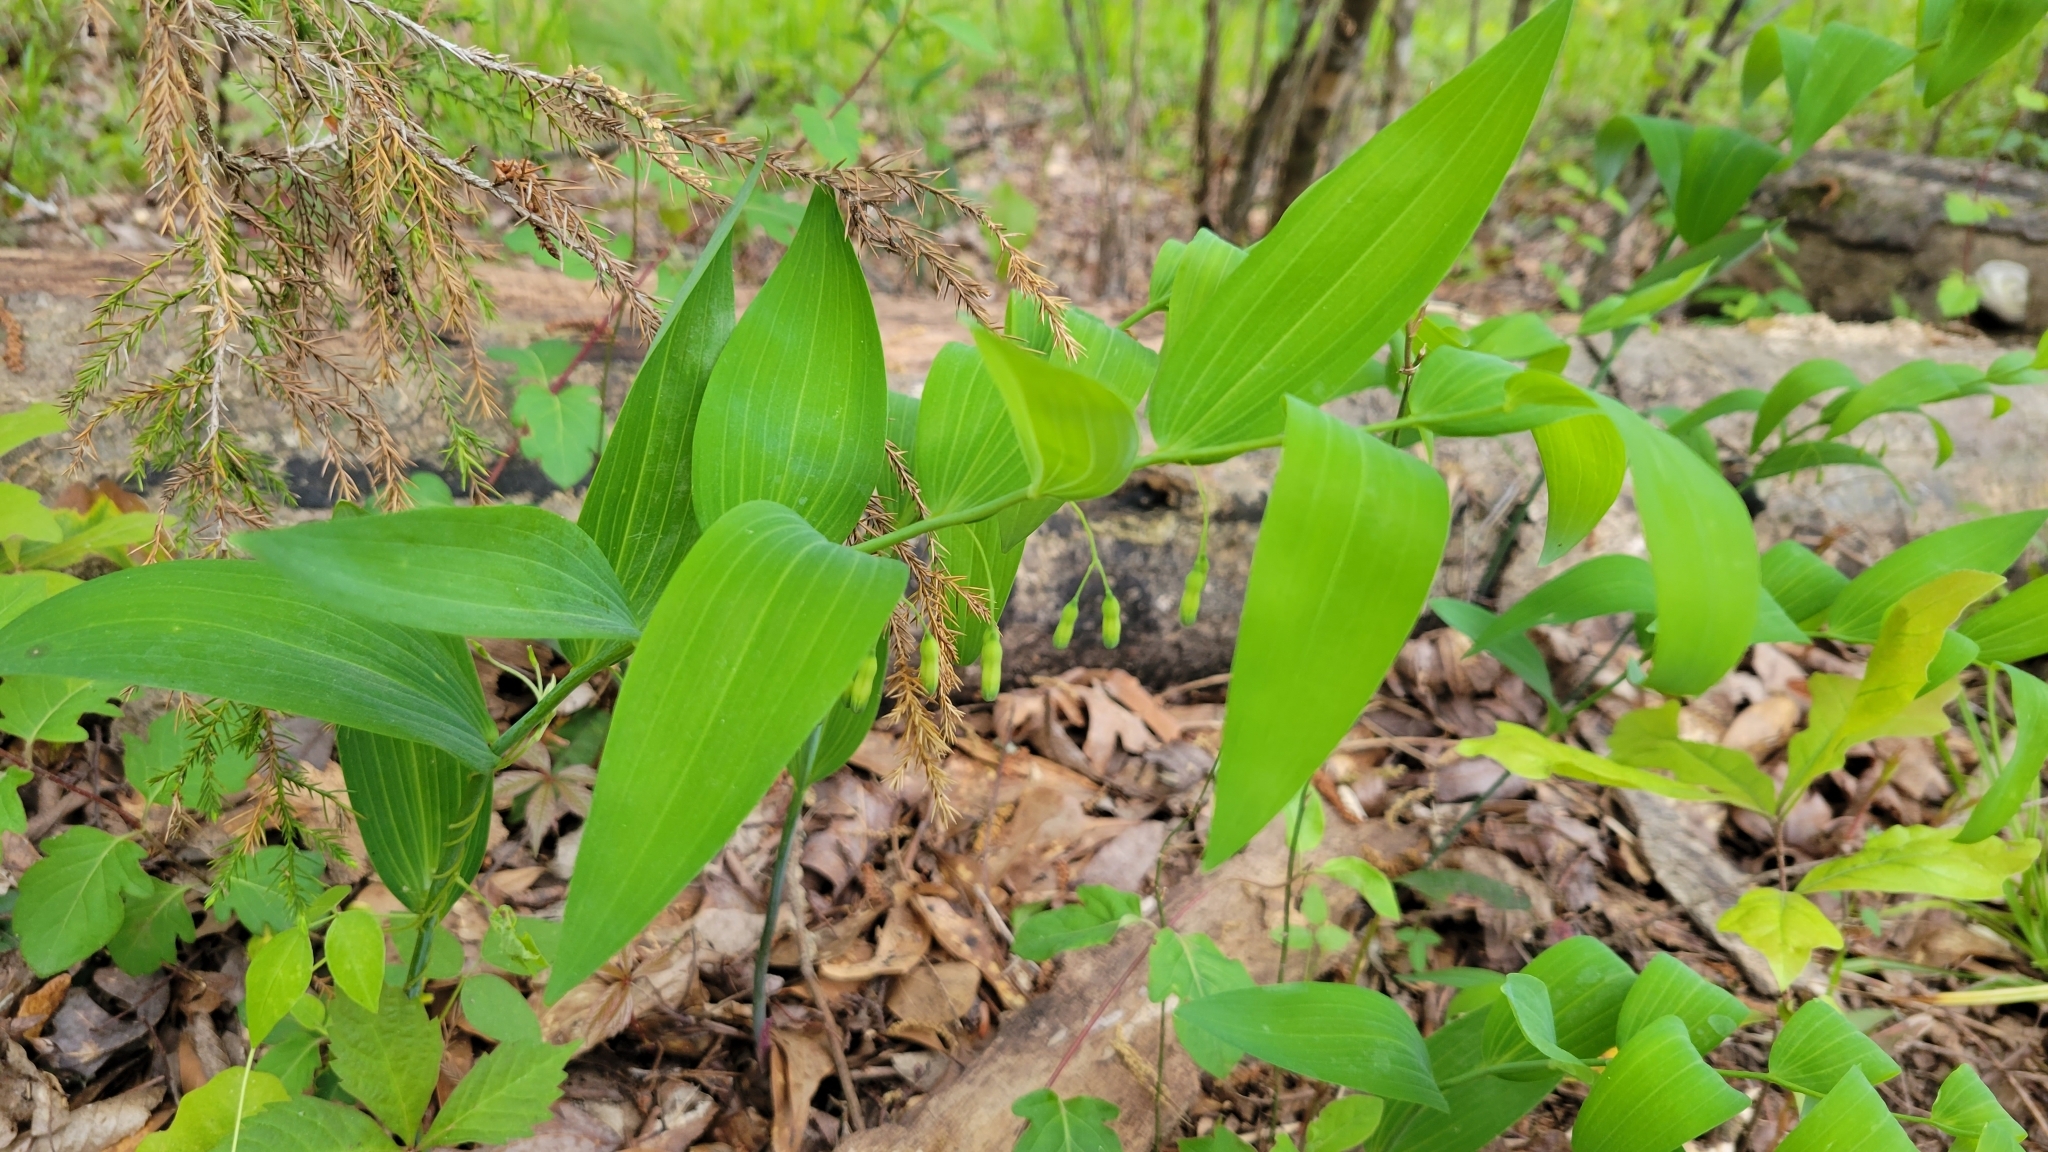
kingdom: Plantae
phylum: Tracheophyta
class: Liliopsida
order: Asparagales
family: Asparagaceae
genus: Polygonatum
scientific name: Polygonatum biflorum
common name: American solomon's-seal
